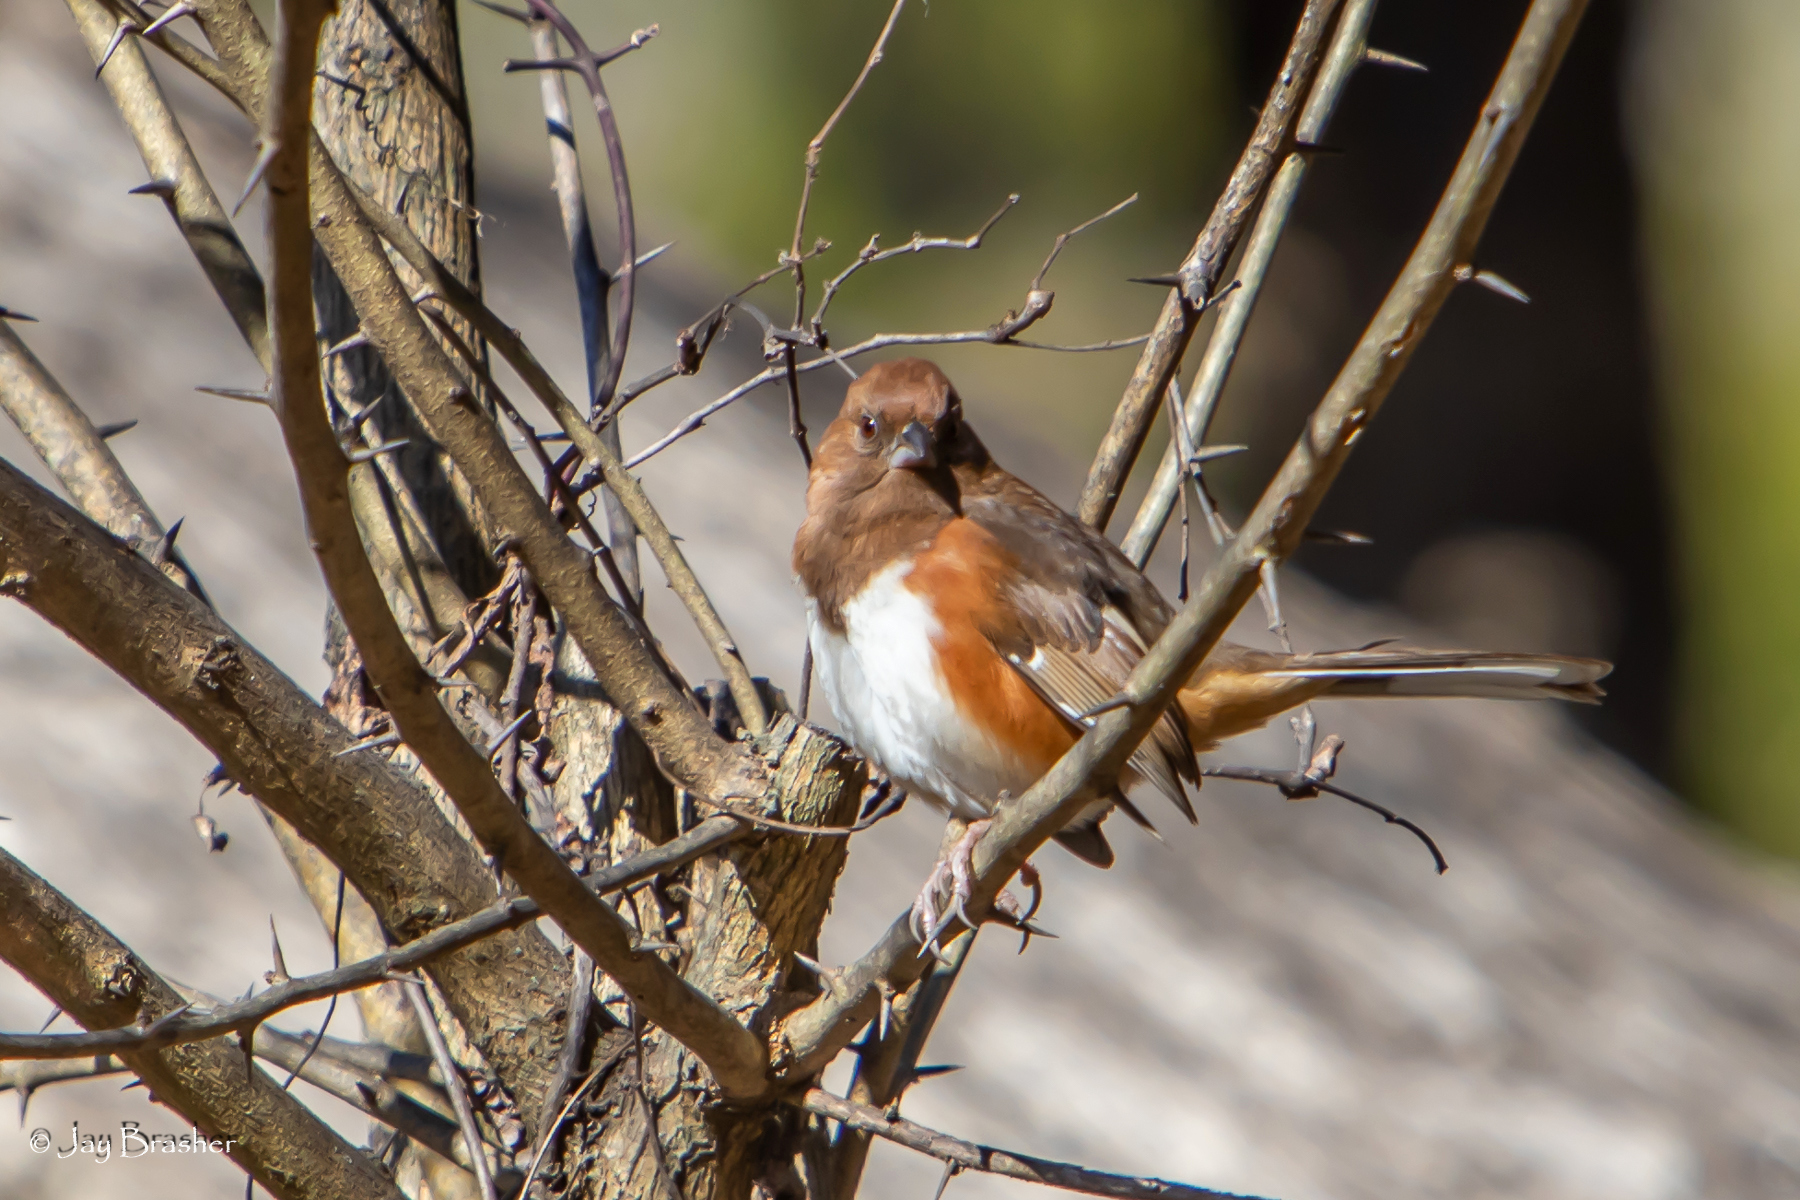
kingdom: Animalia
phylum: Chordata
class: Aves
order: Passeriformes
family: Passerellidae
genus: Pipilo
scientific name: Pipilo erythrophthalmus
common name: Eastern towhee
